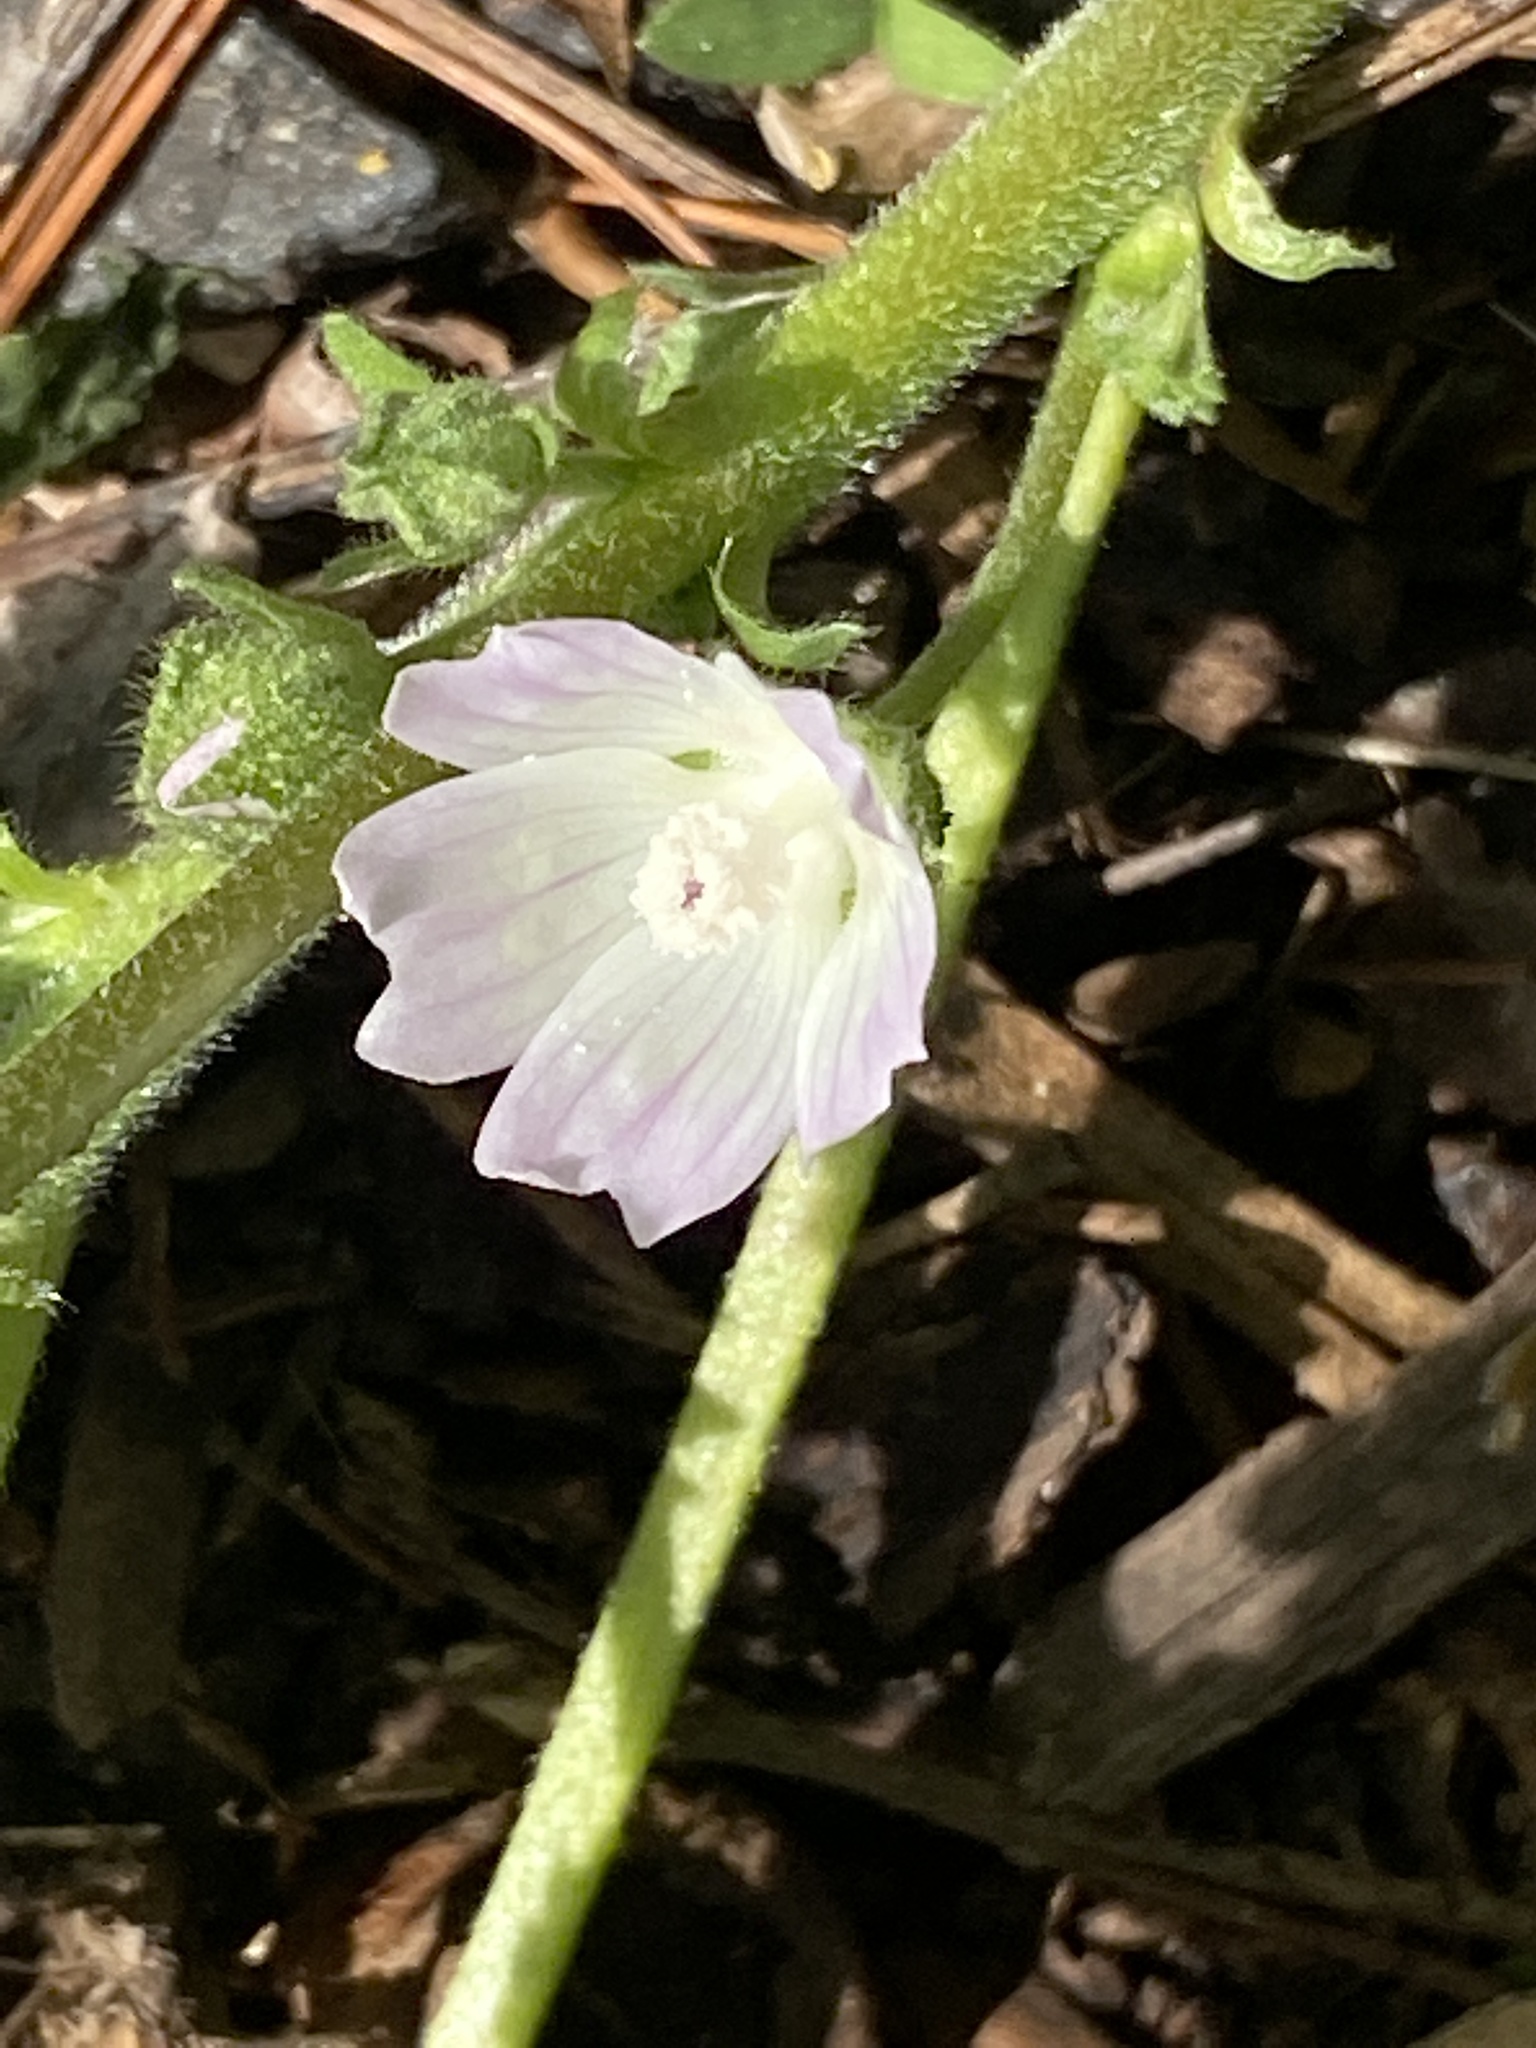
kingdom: Plantae
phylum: Tracheophyta
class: Magnoliopsida
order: Malvales
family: Malvaceae
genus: Malva
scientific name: Malva neglecta
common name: Common mallow
